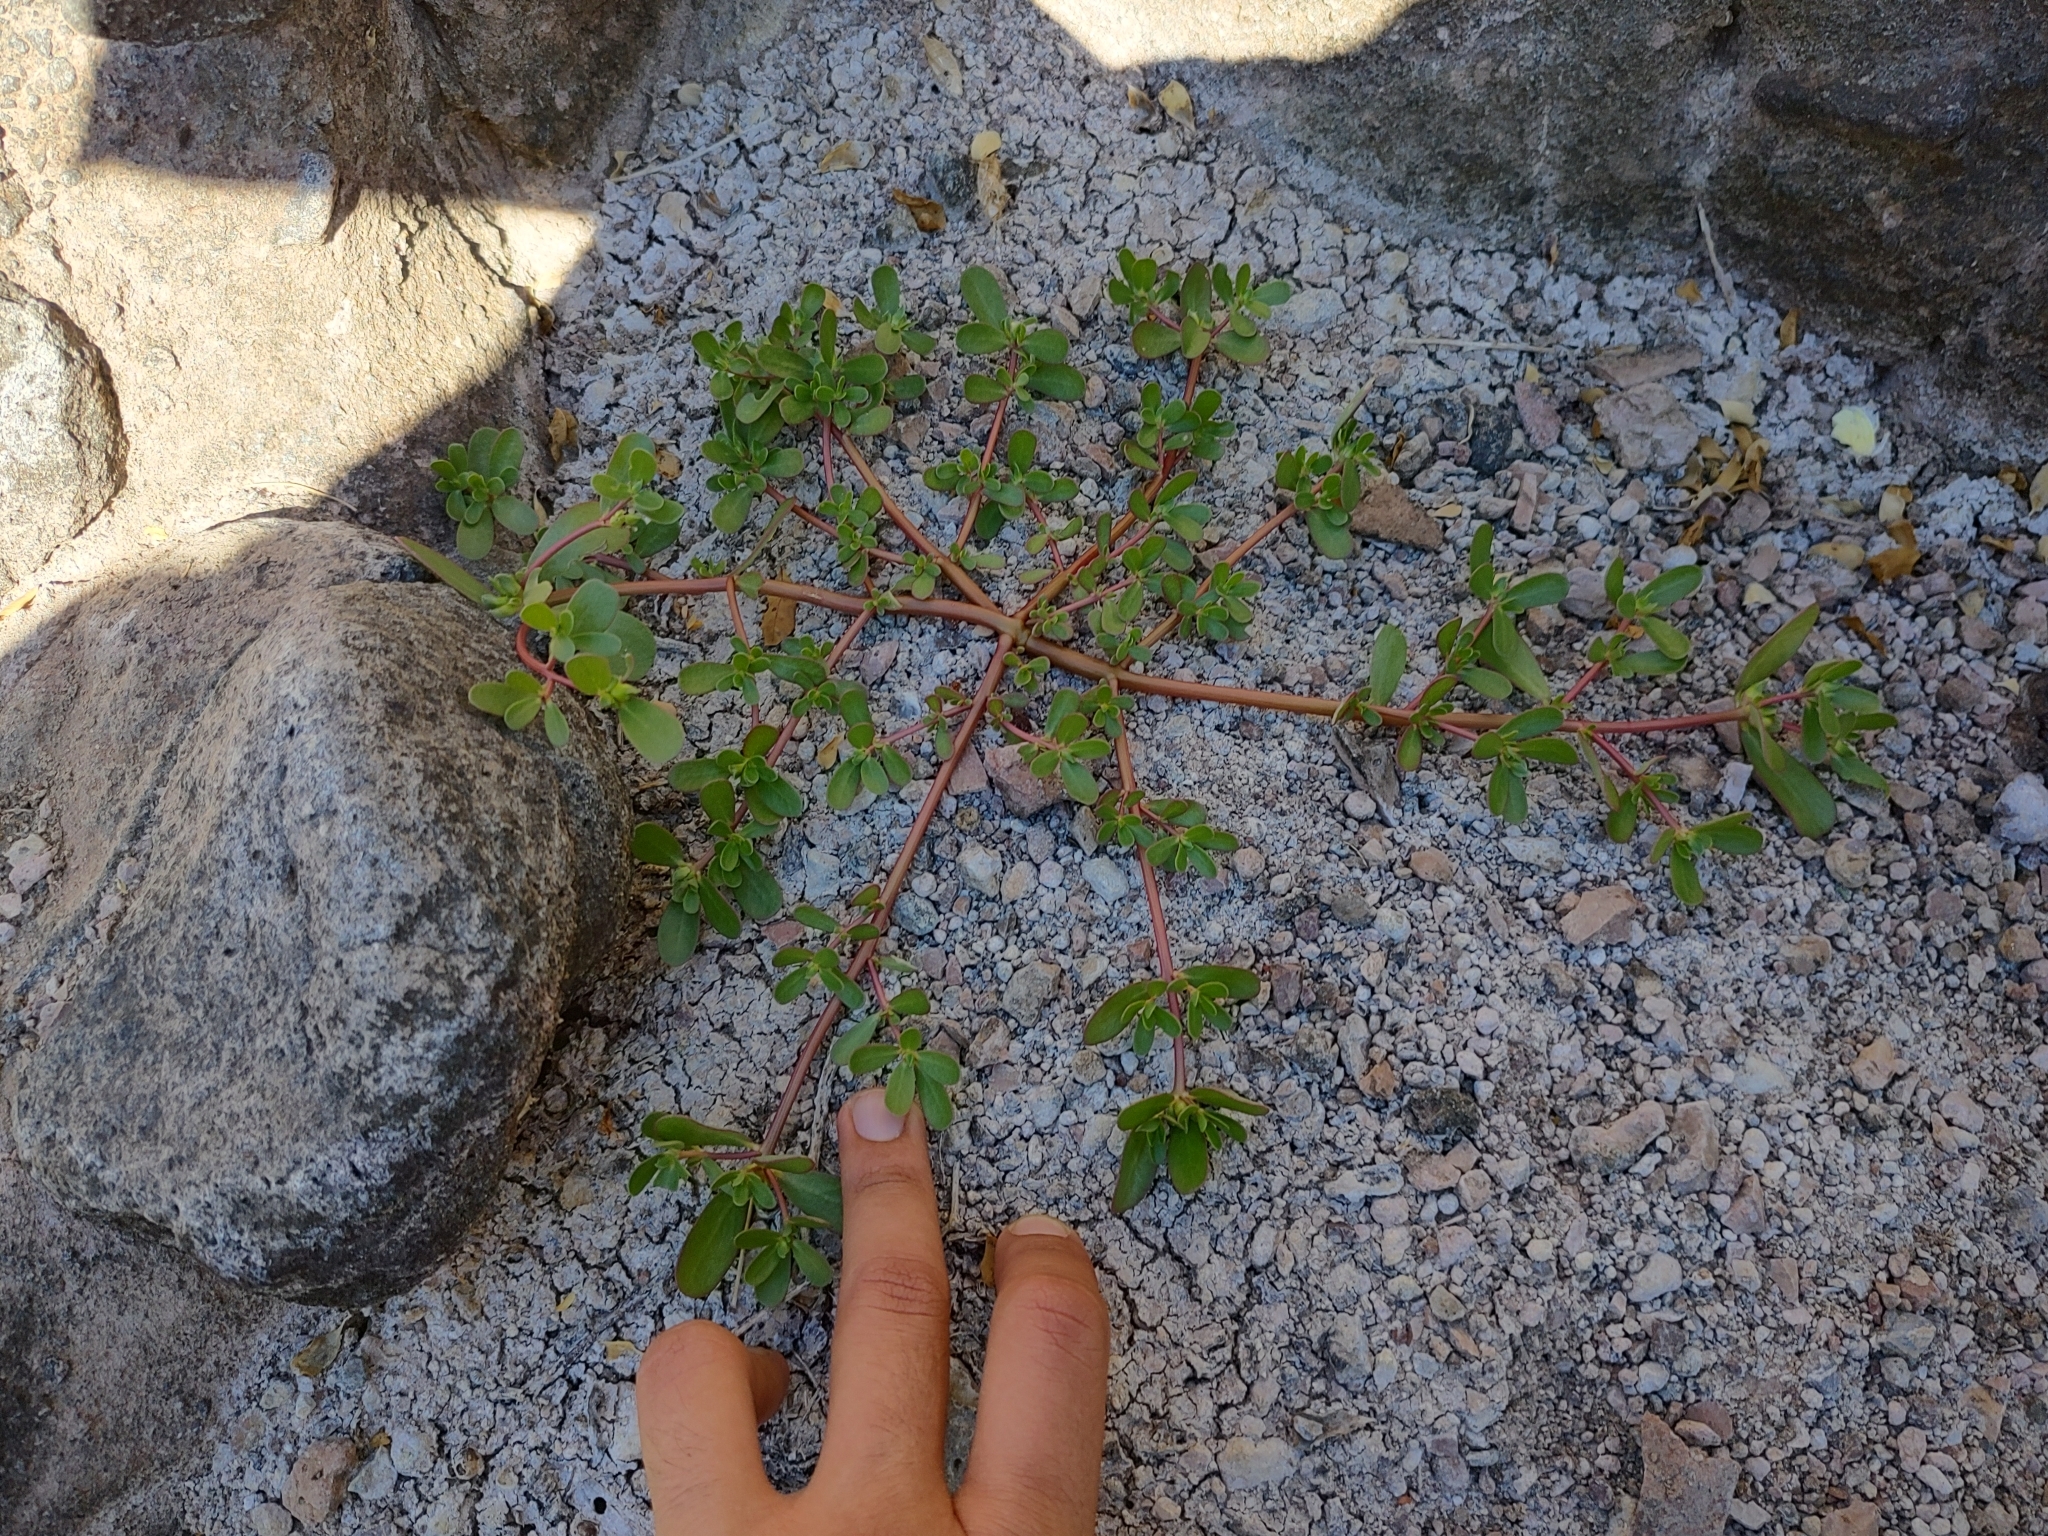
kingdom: Plantae
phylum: Tracheophyta
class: Magnoliopsida
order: Caryophyllales
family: Portulacaceae
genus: Portulaca
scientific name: Portulaca oleracea
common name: Common purslane
